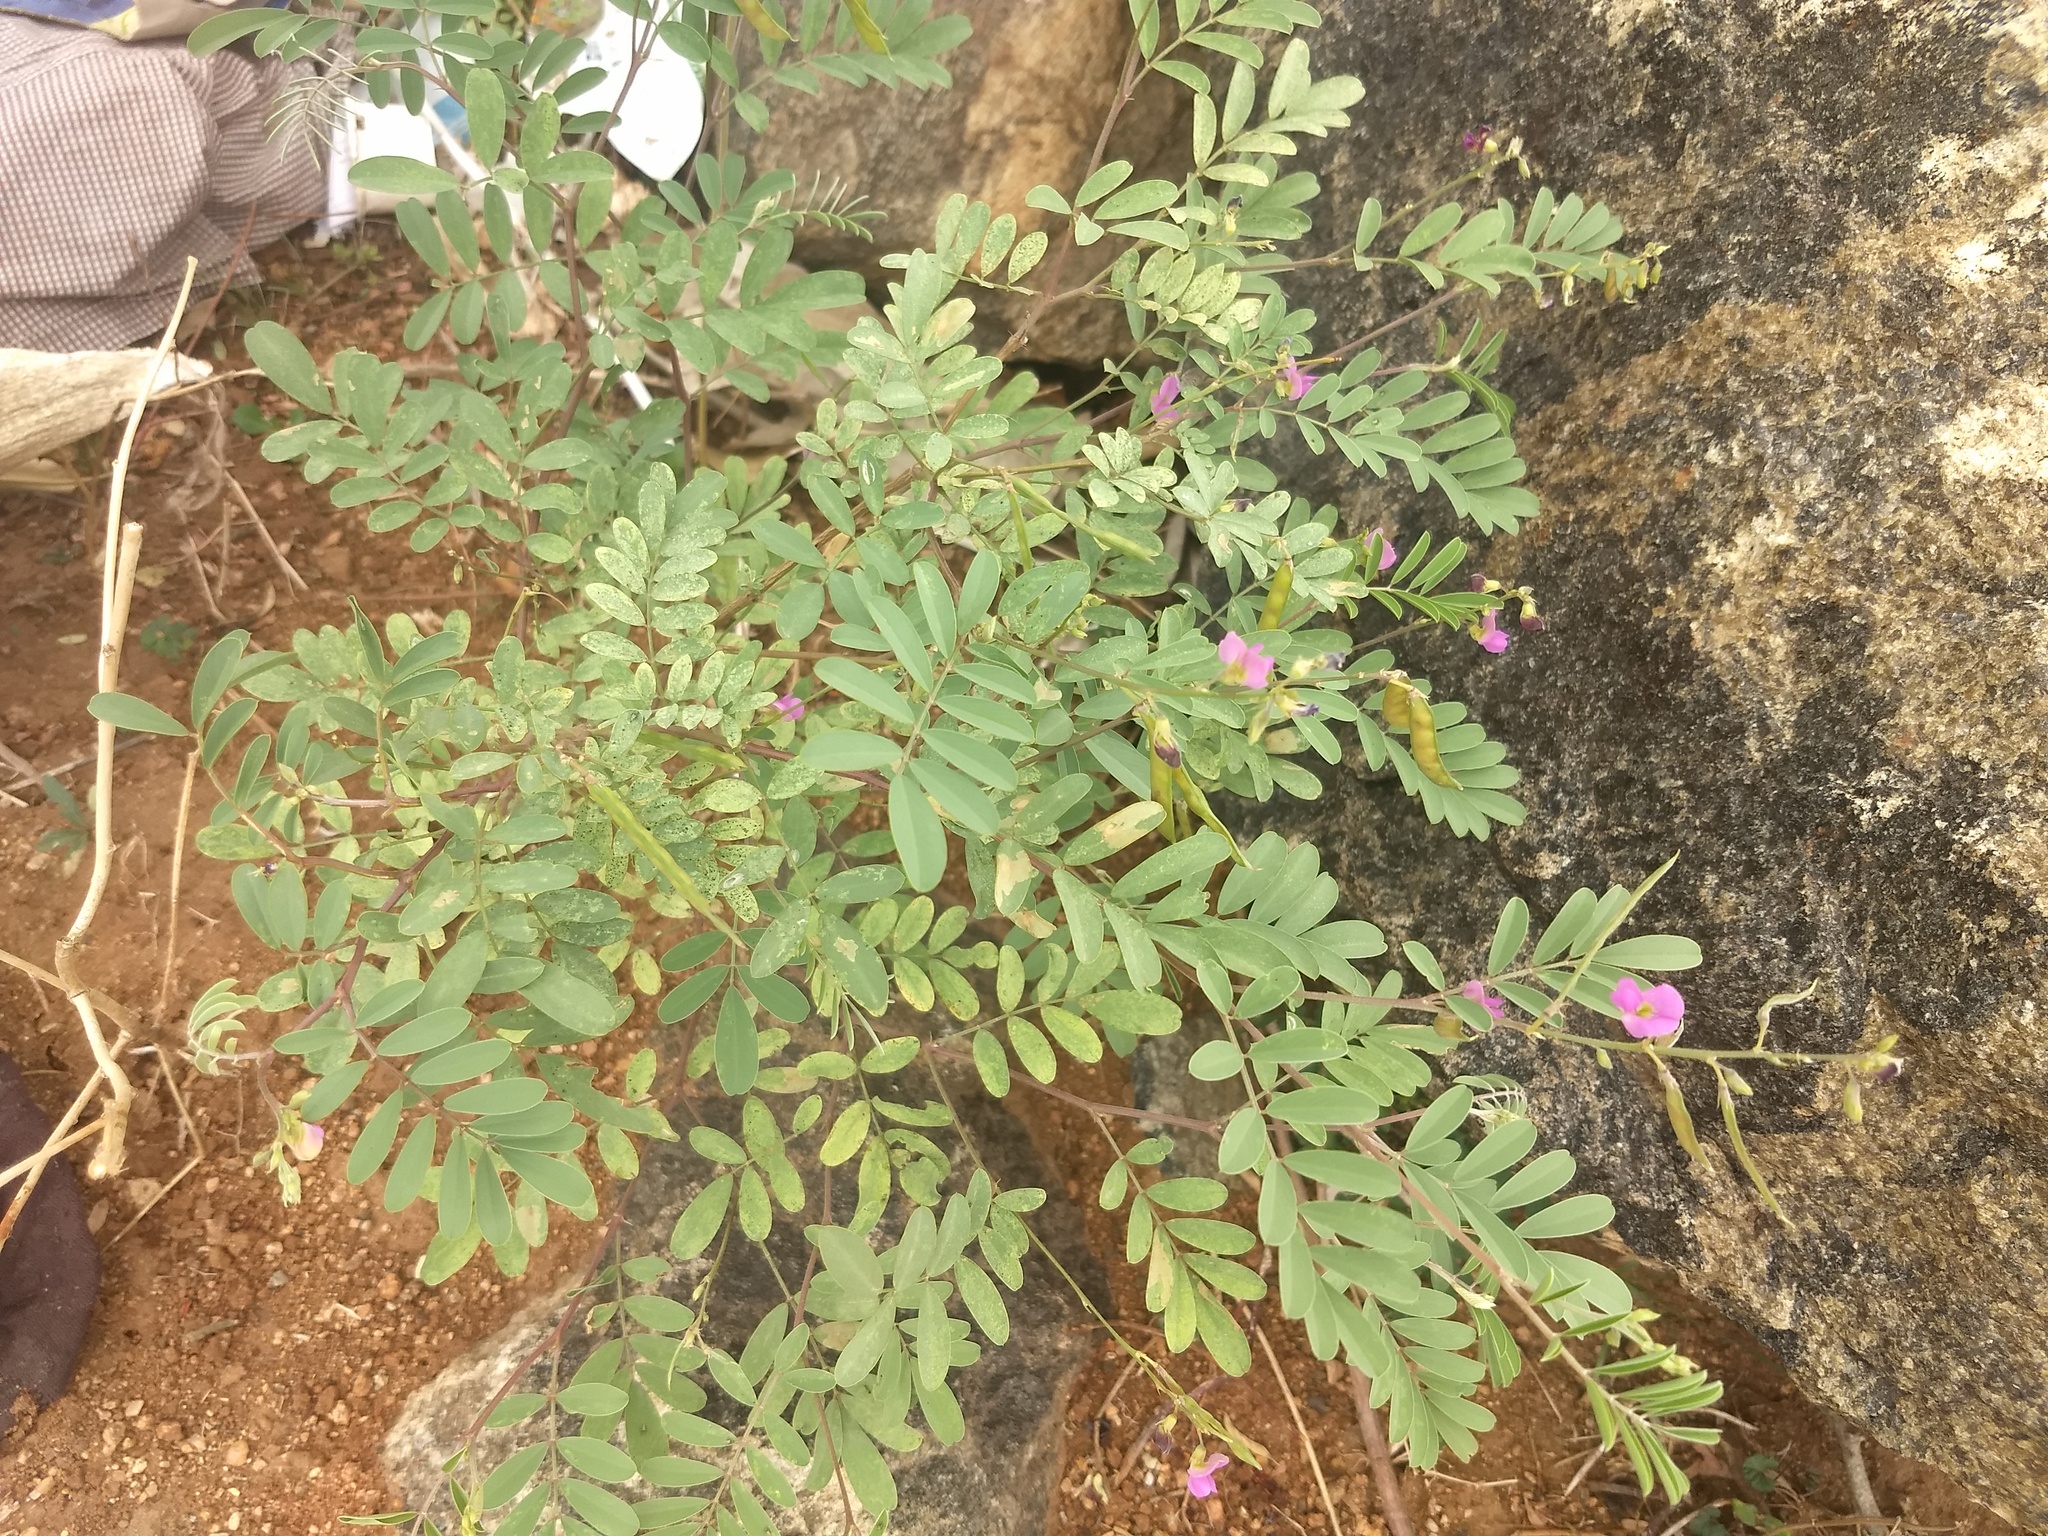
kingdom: Plantae
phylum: Tracheophyta
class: Magnoliopsida
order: Fabales
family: Fabaceae
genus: Tephrosia
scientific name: Tephrosia purpurea
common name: Fishpoison
